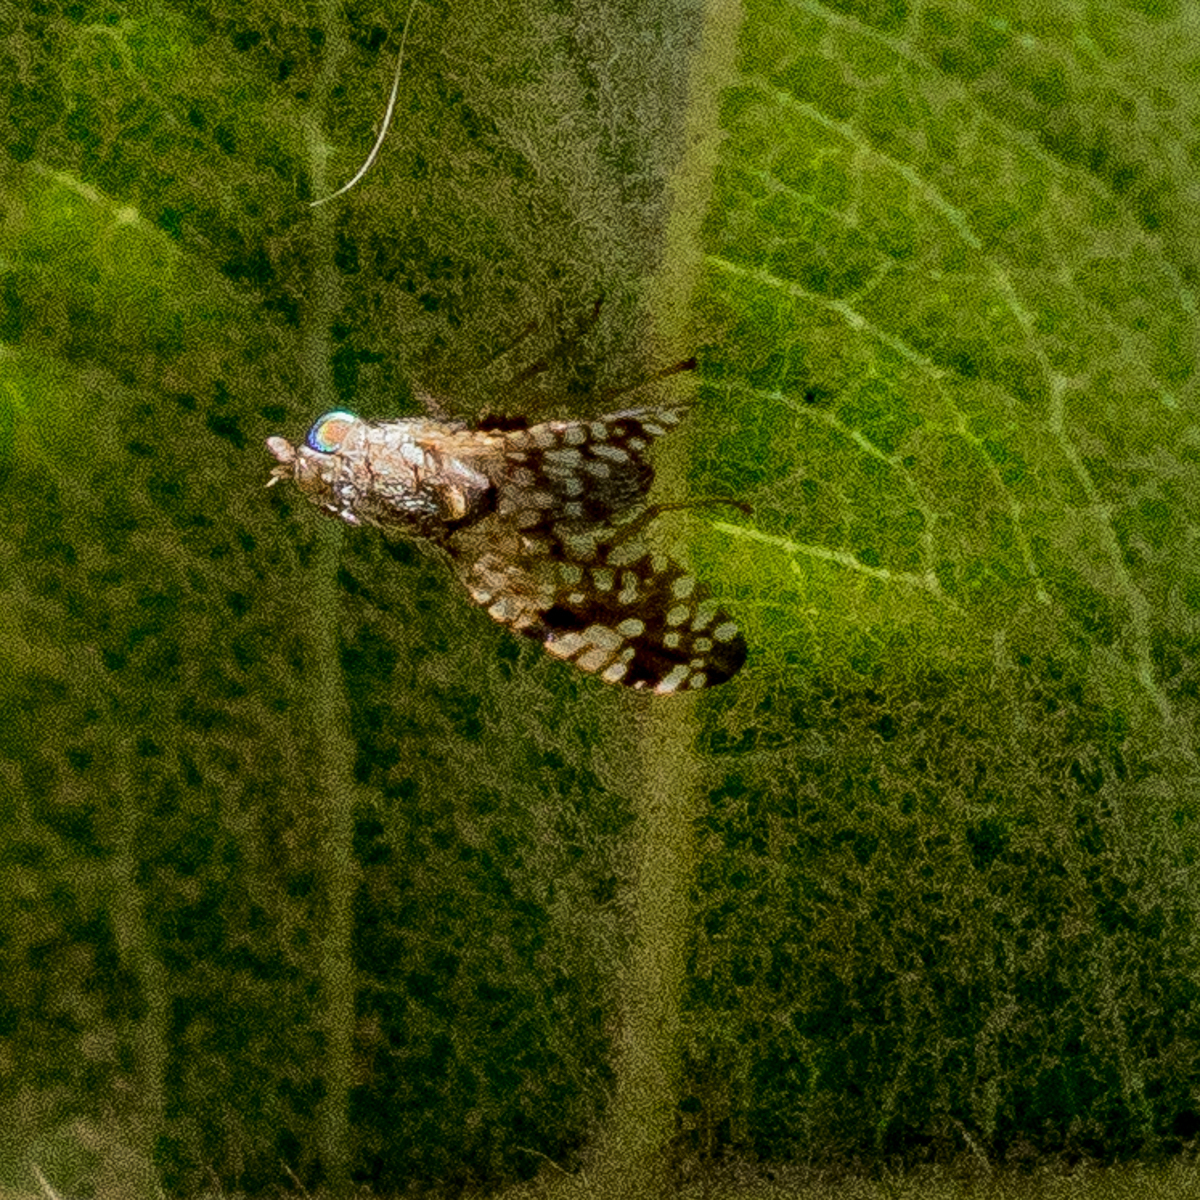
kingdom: Animalia
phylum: Arthropoda
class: Insecta
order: Diptera
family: Tephritidae
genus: Neotephritis
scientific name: Neotephritis finalis
